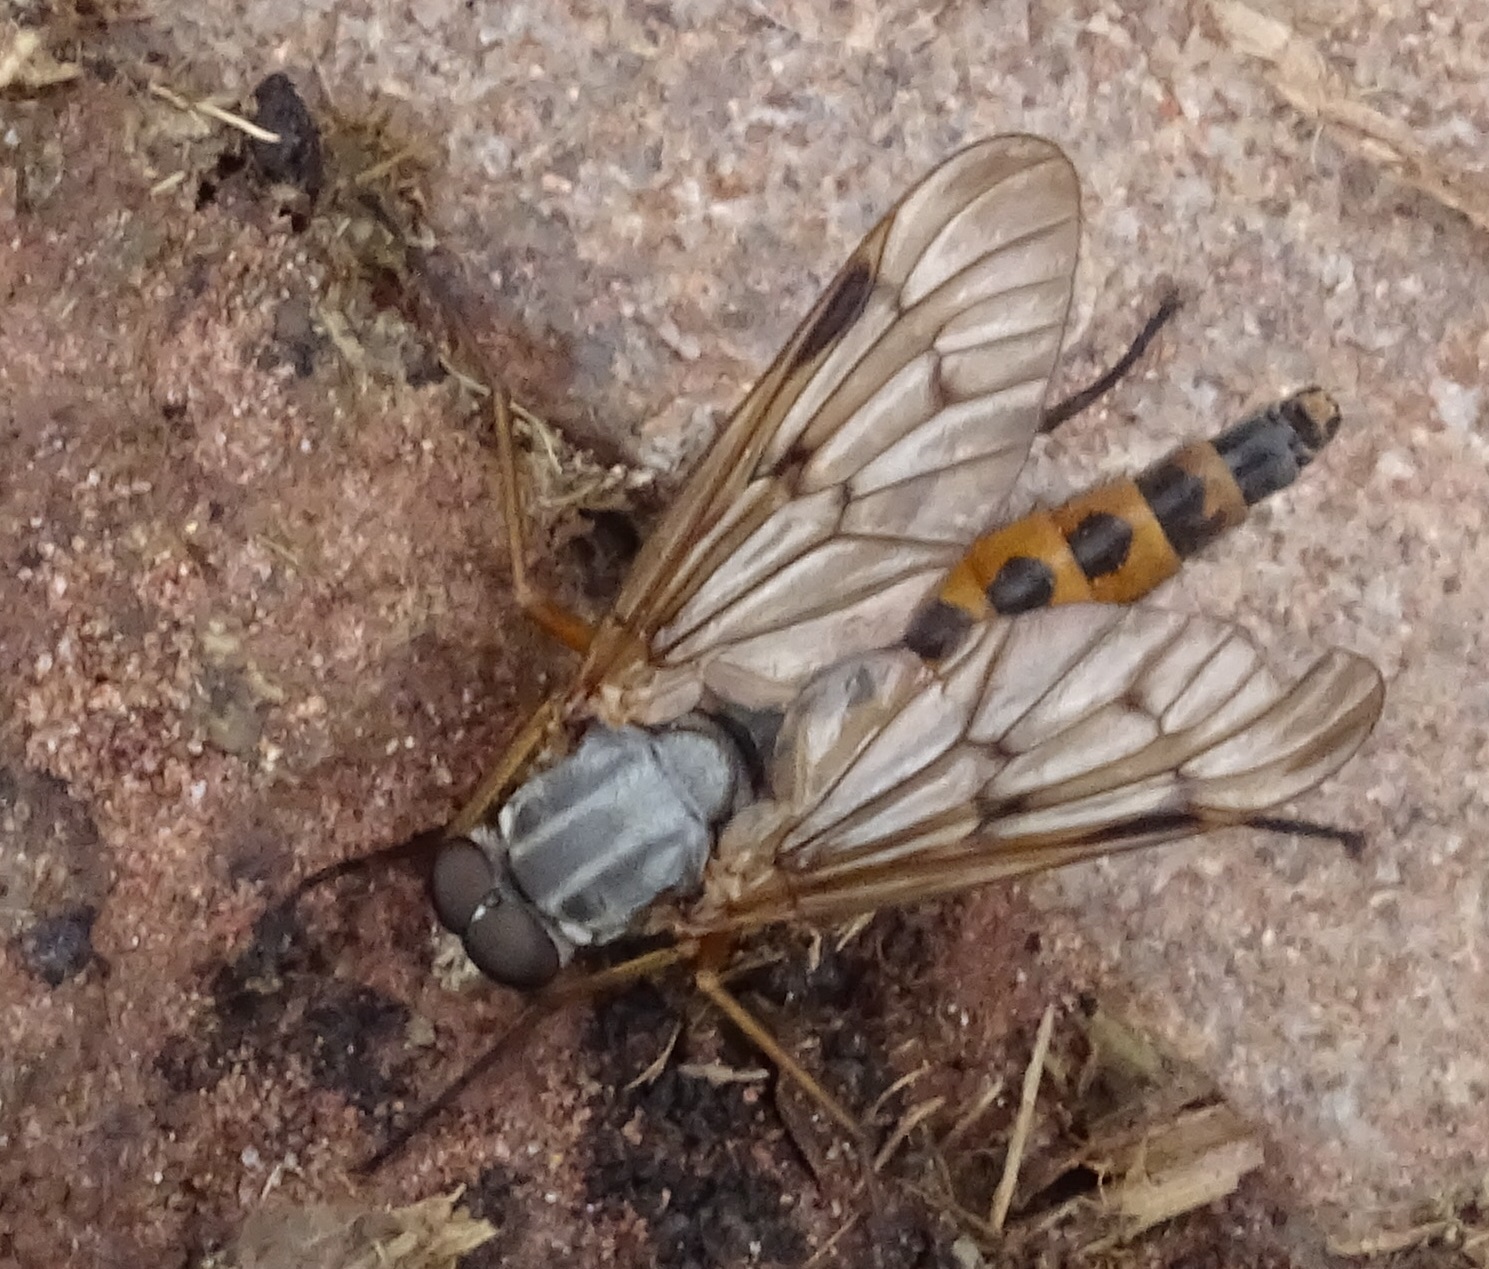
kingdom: Animalia
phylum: Arthropoda
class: Insecta
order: Diptera
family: Rhagionidae
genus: Rhagio
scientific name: Rhagio scolopacea
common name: Downlooker snipefly
